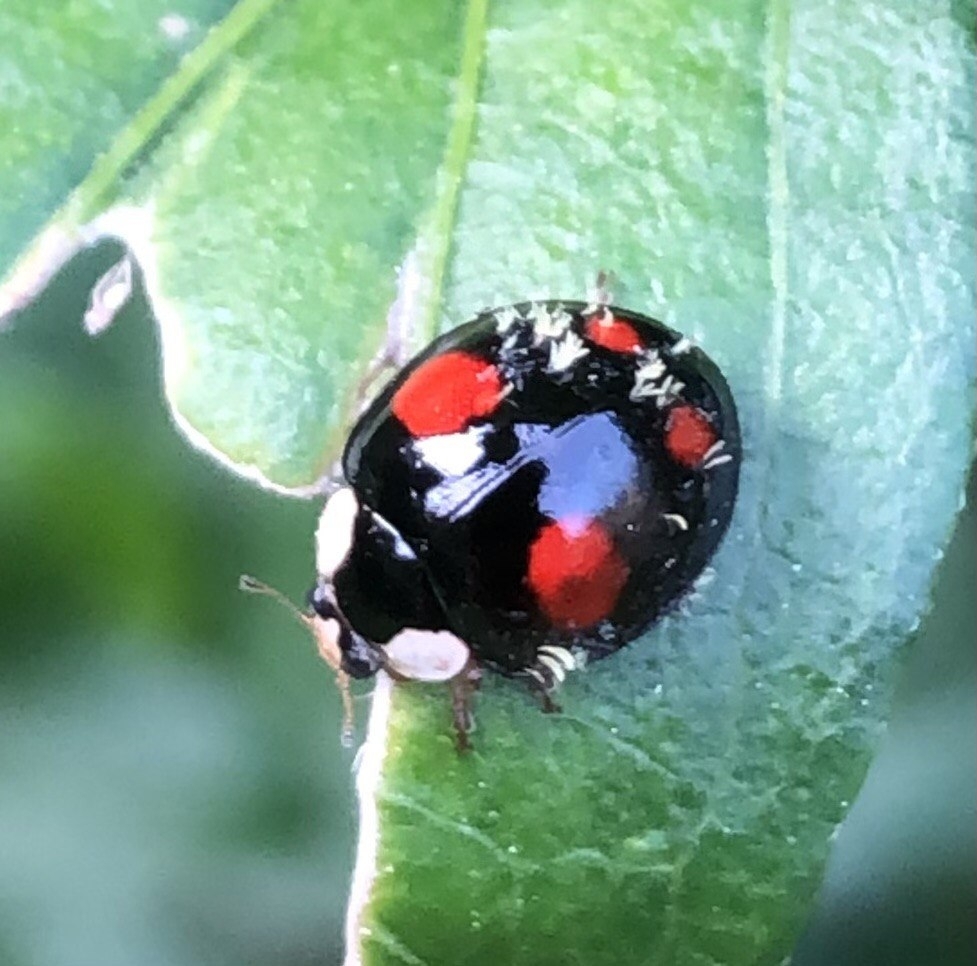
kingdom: Animalia
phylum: Arthropoda
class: Insecta
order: Coleoptera
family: Coccinellidae
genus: Harmonia
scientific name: Harmonia axyridis
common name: Harlequin ladybird
